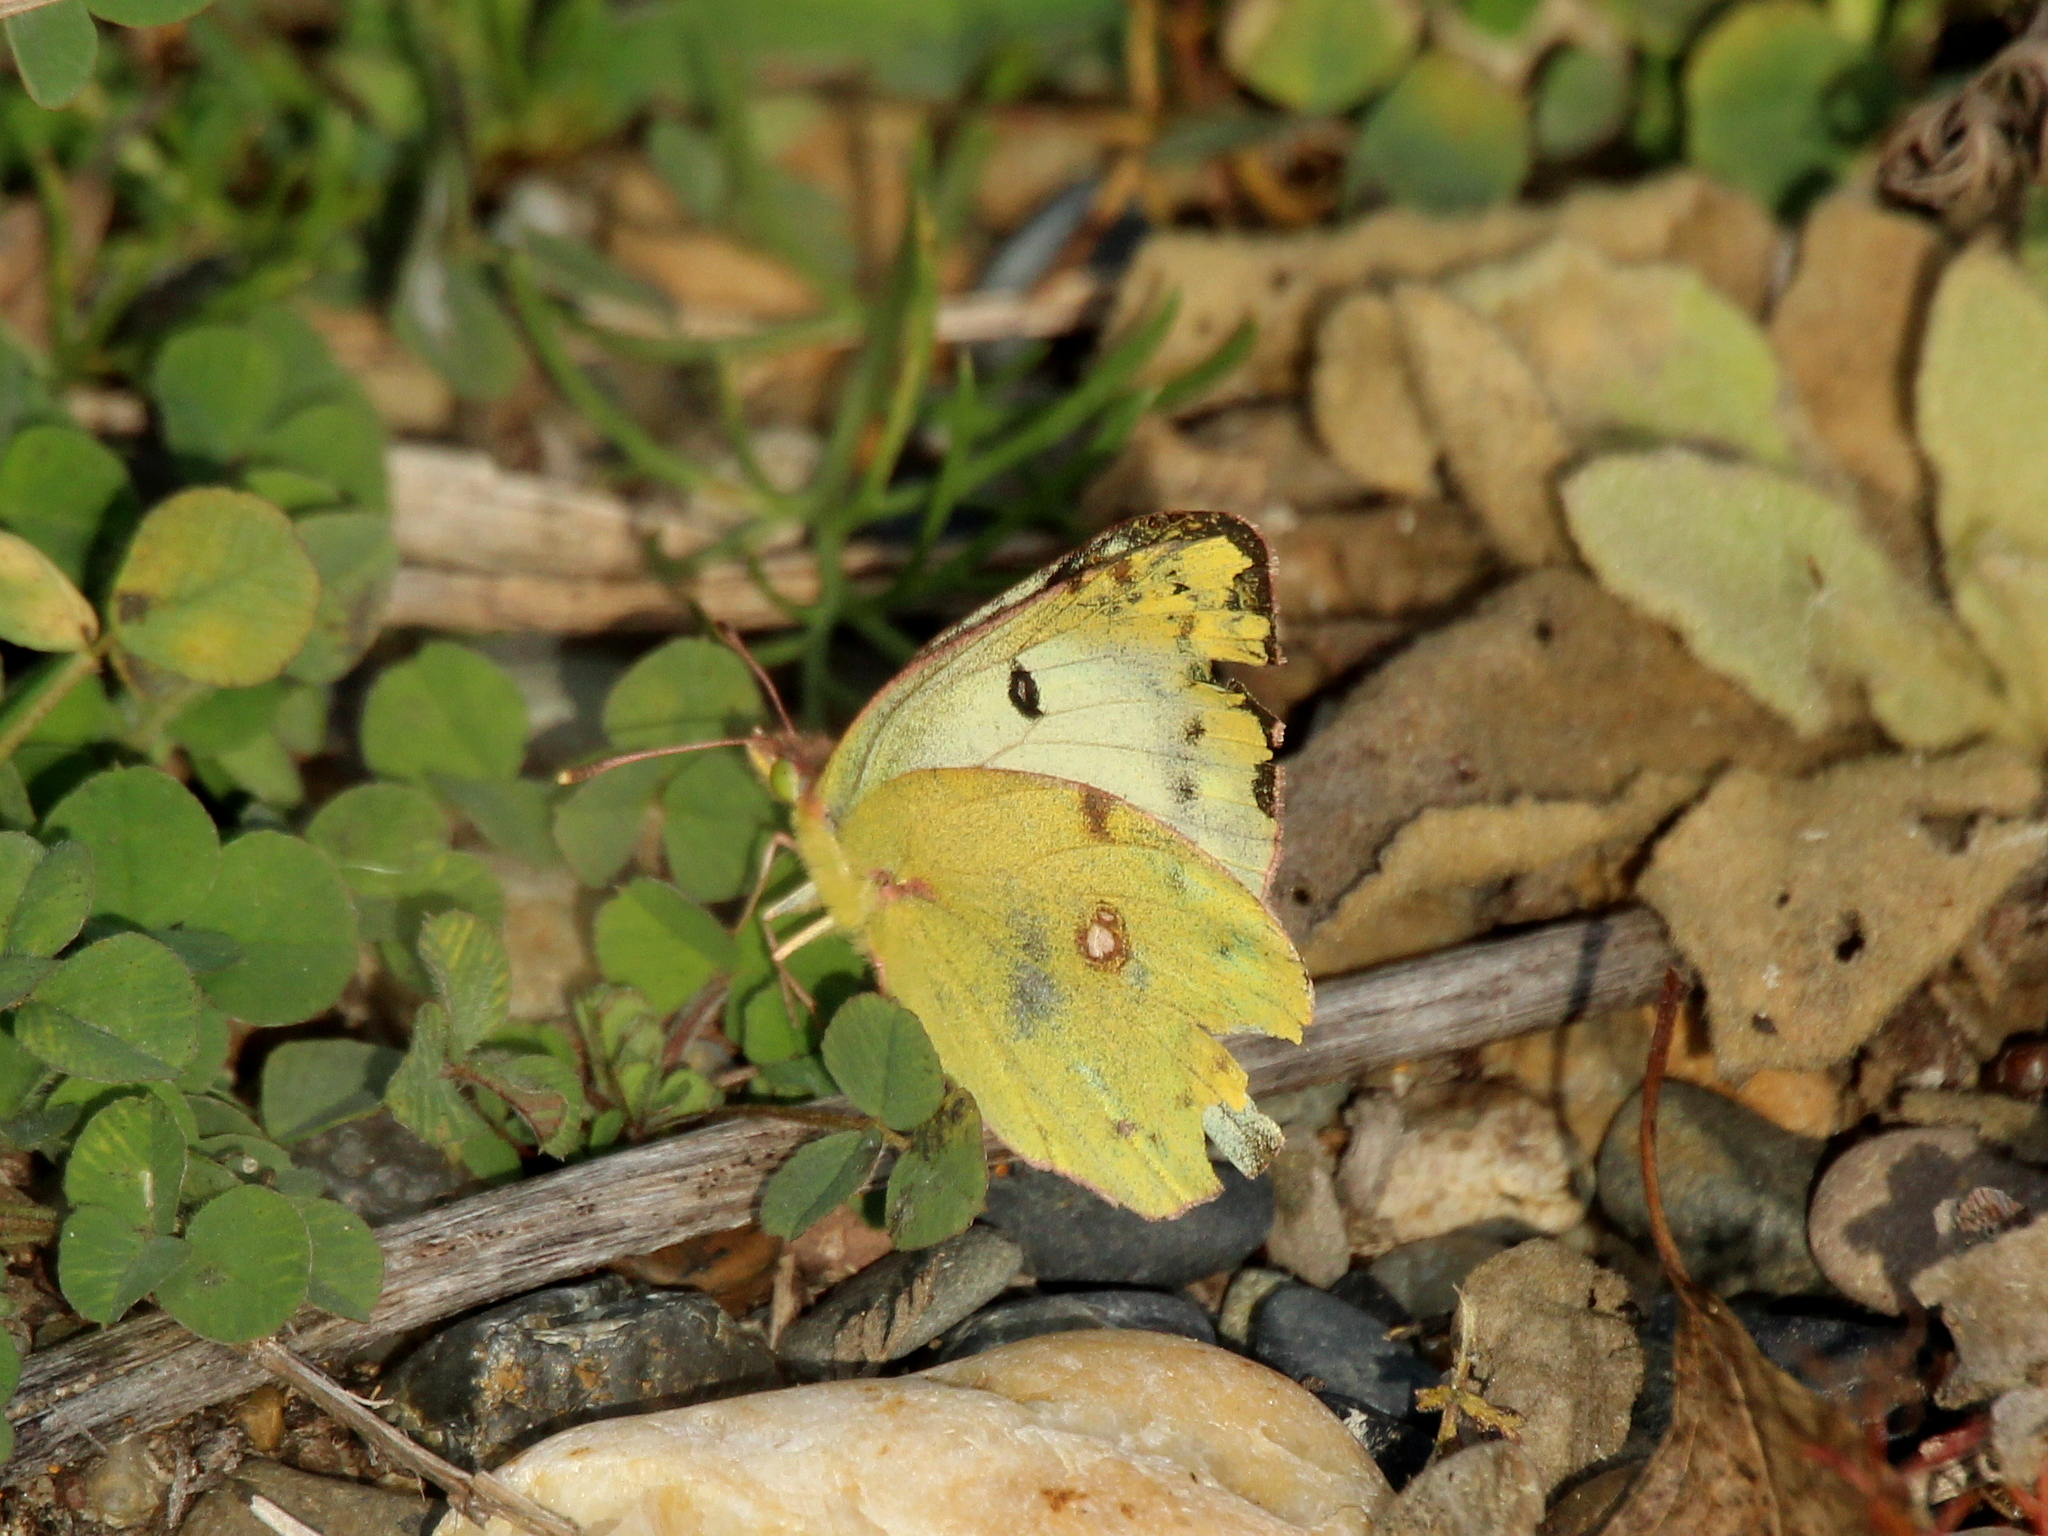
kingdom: Animalia
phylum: Arthropoda
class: Insecta
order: Lepidoptera
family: Pieridae
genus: Colias
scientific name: Colias hyale
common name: Pale clouded yellow
